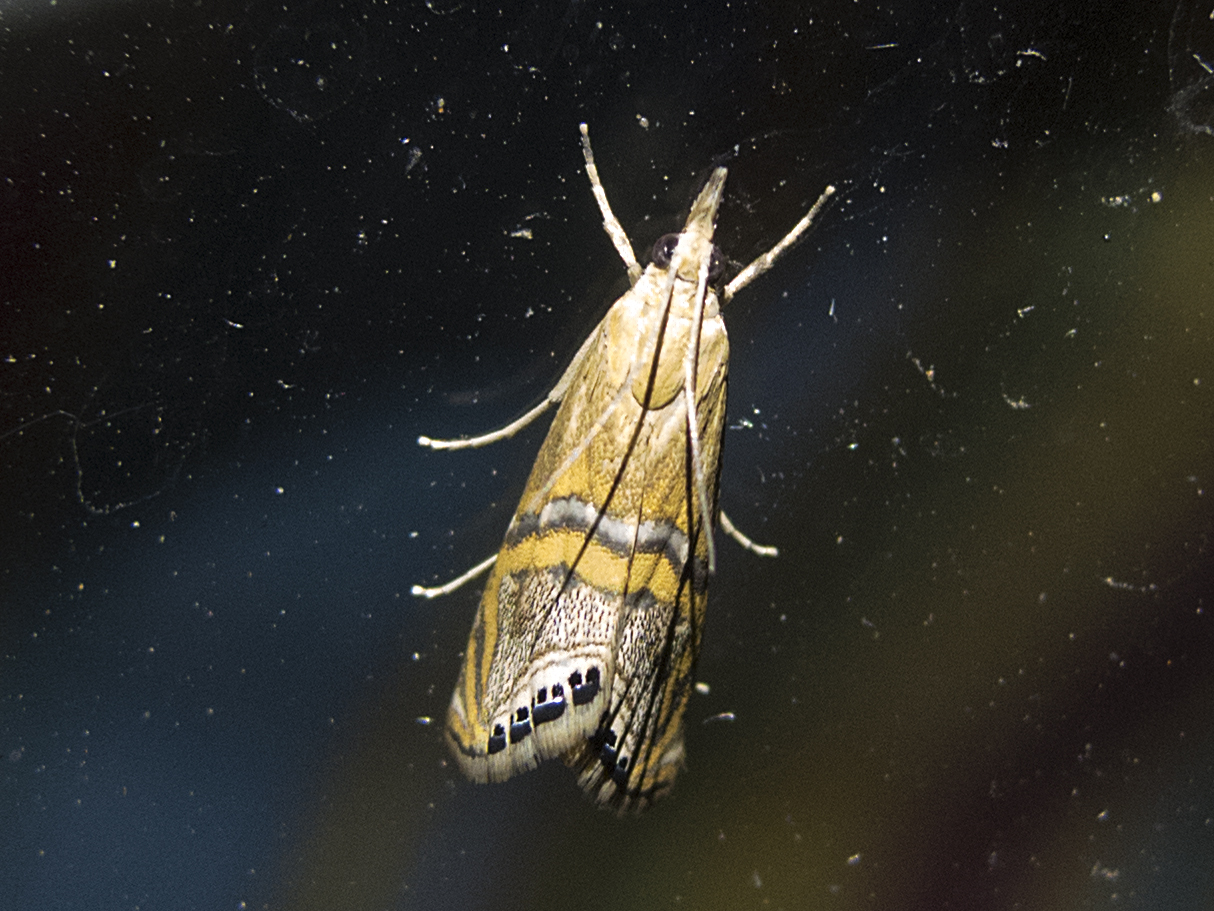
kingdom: Animalia
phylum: Arthropoda
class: Insecta
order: Lepidoptera
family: Crambidae
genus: Euchromius
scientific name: Euchromius bella
